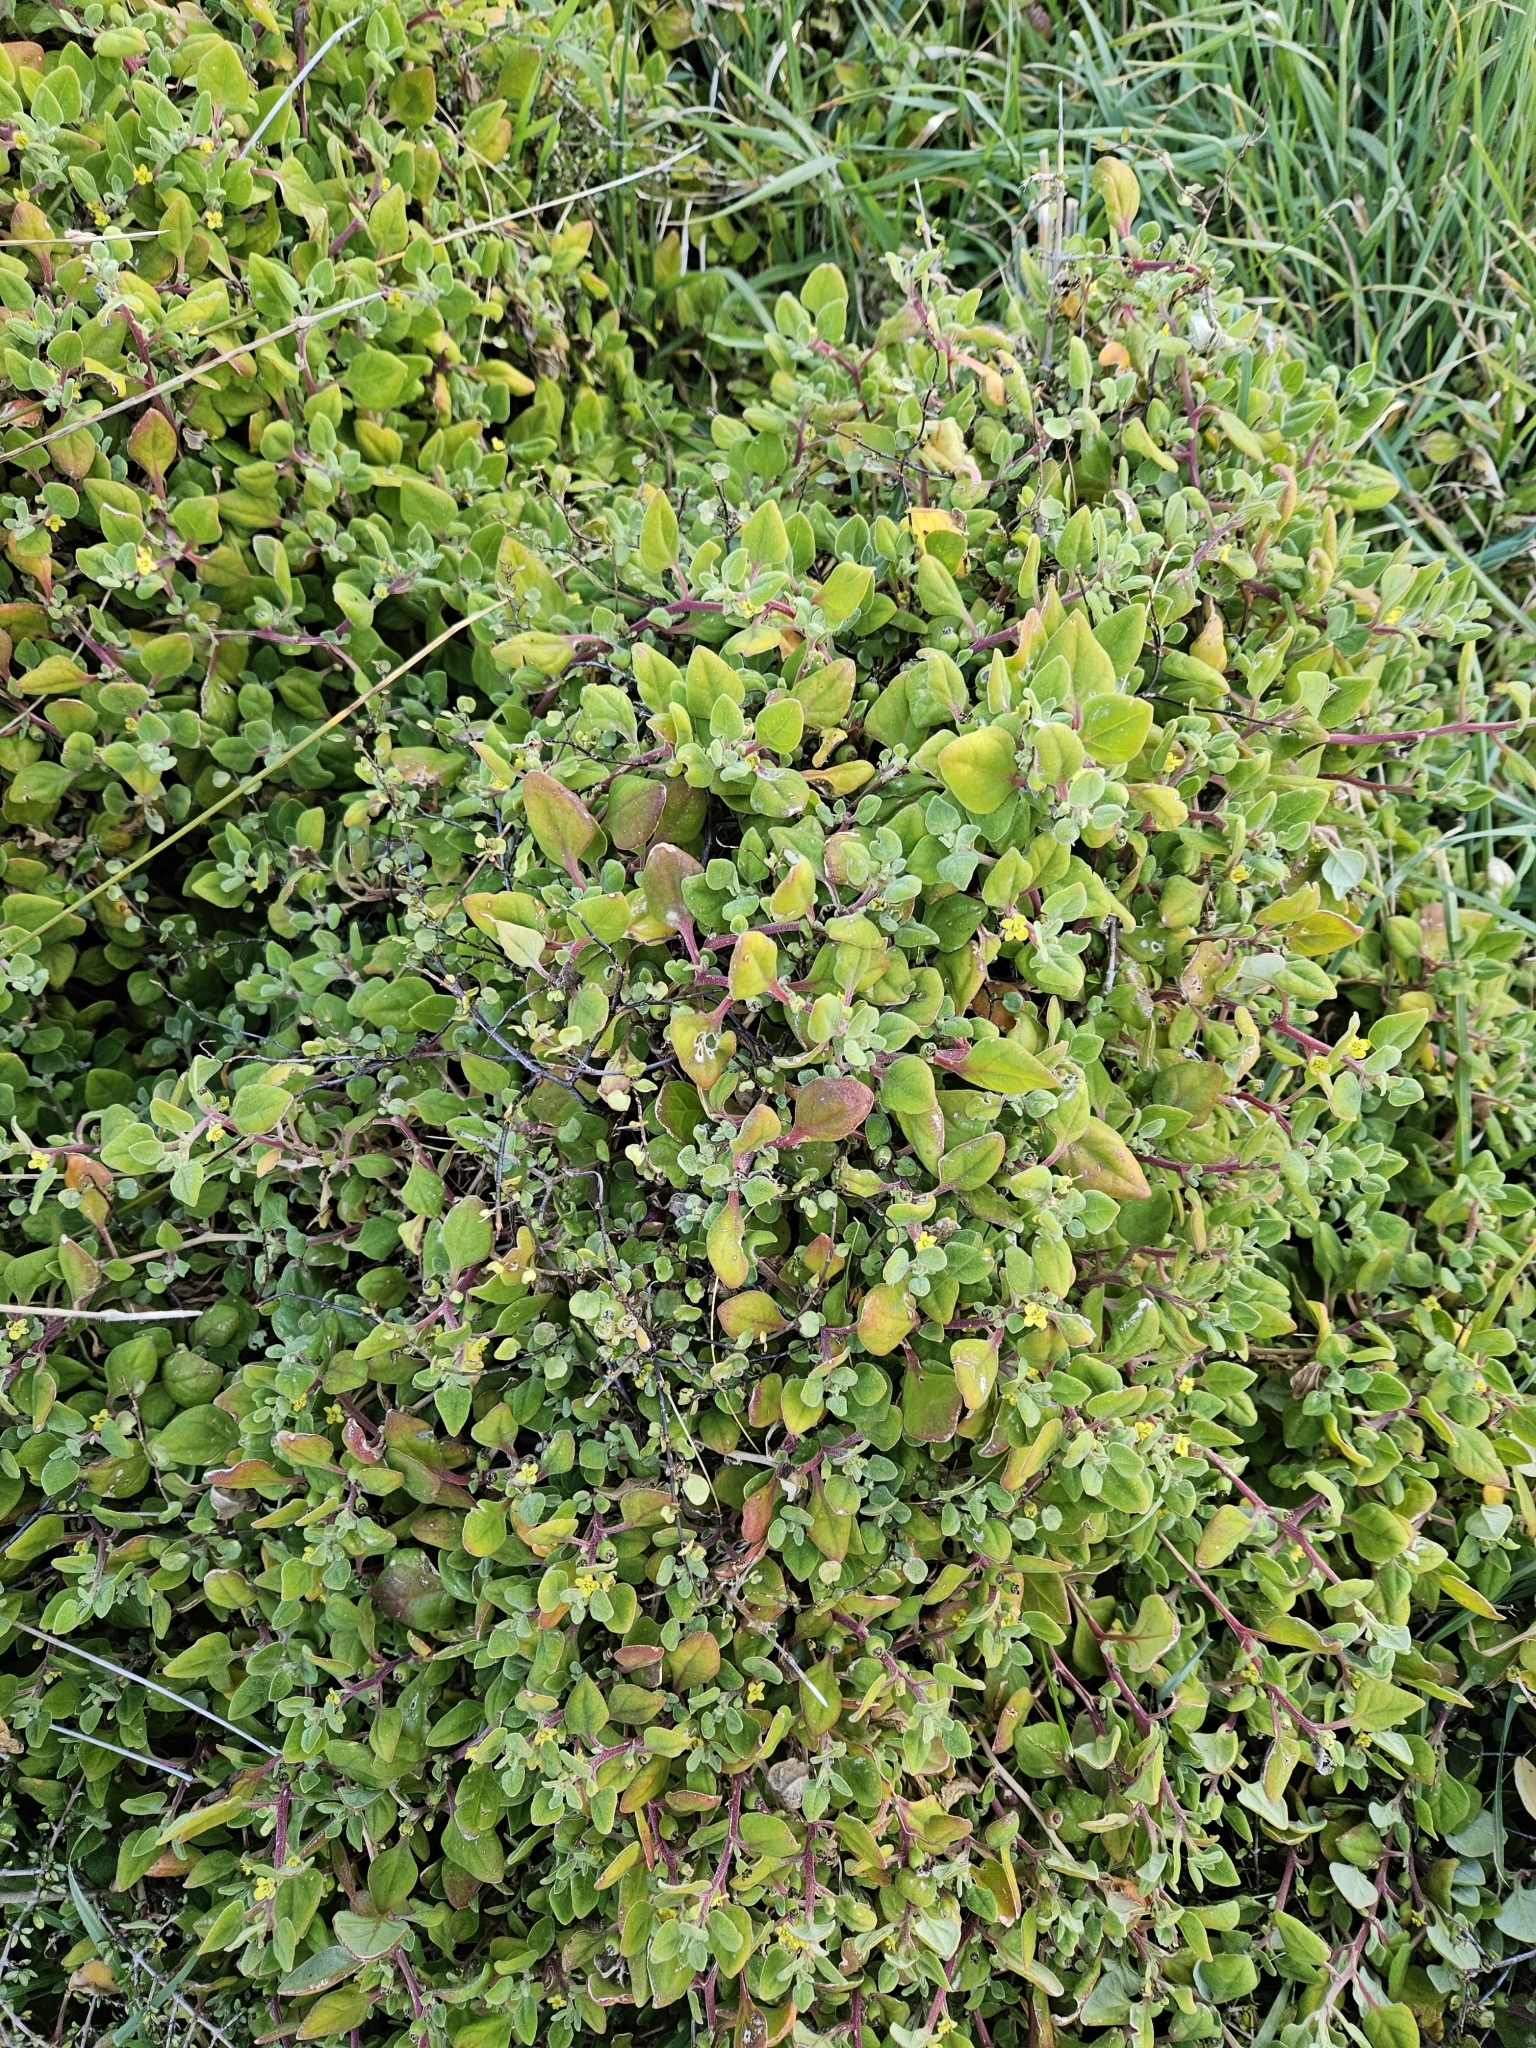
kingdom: Plantae
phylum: Tracheophyta
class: Magnoliopsida
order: Caryophyllales
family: Aizoaceae
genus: Tetragonia
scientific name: Tetragonia implexicoma
